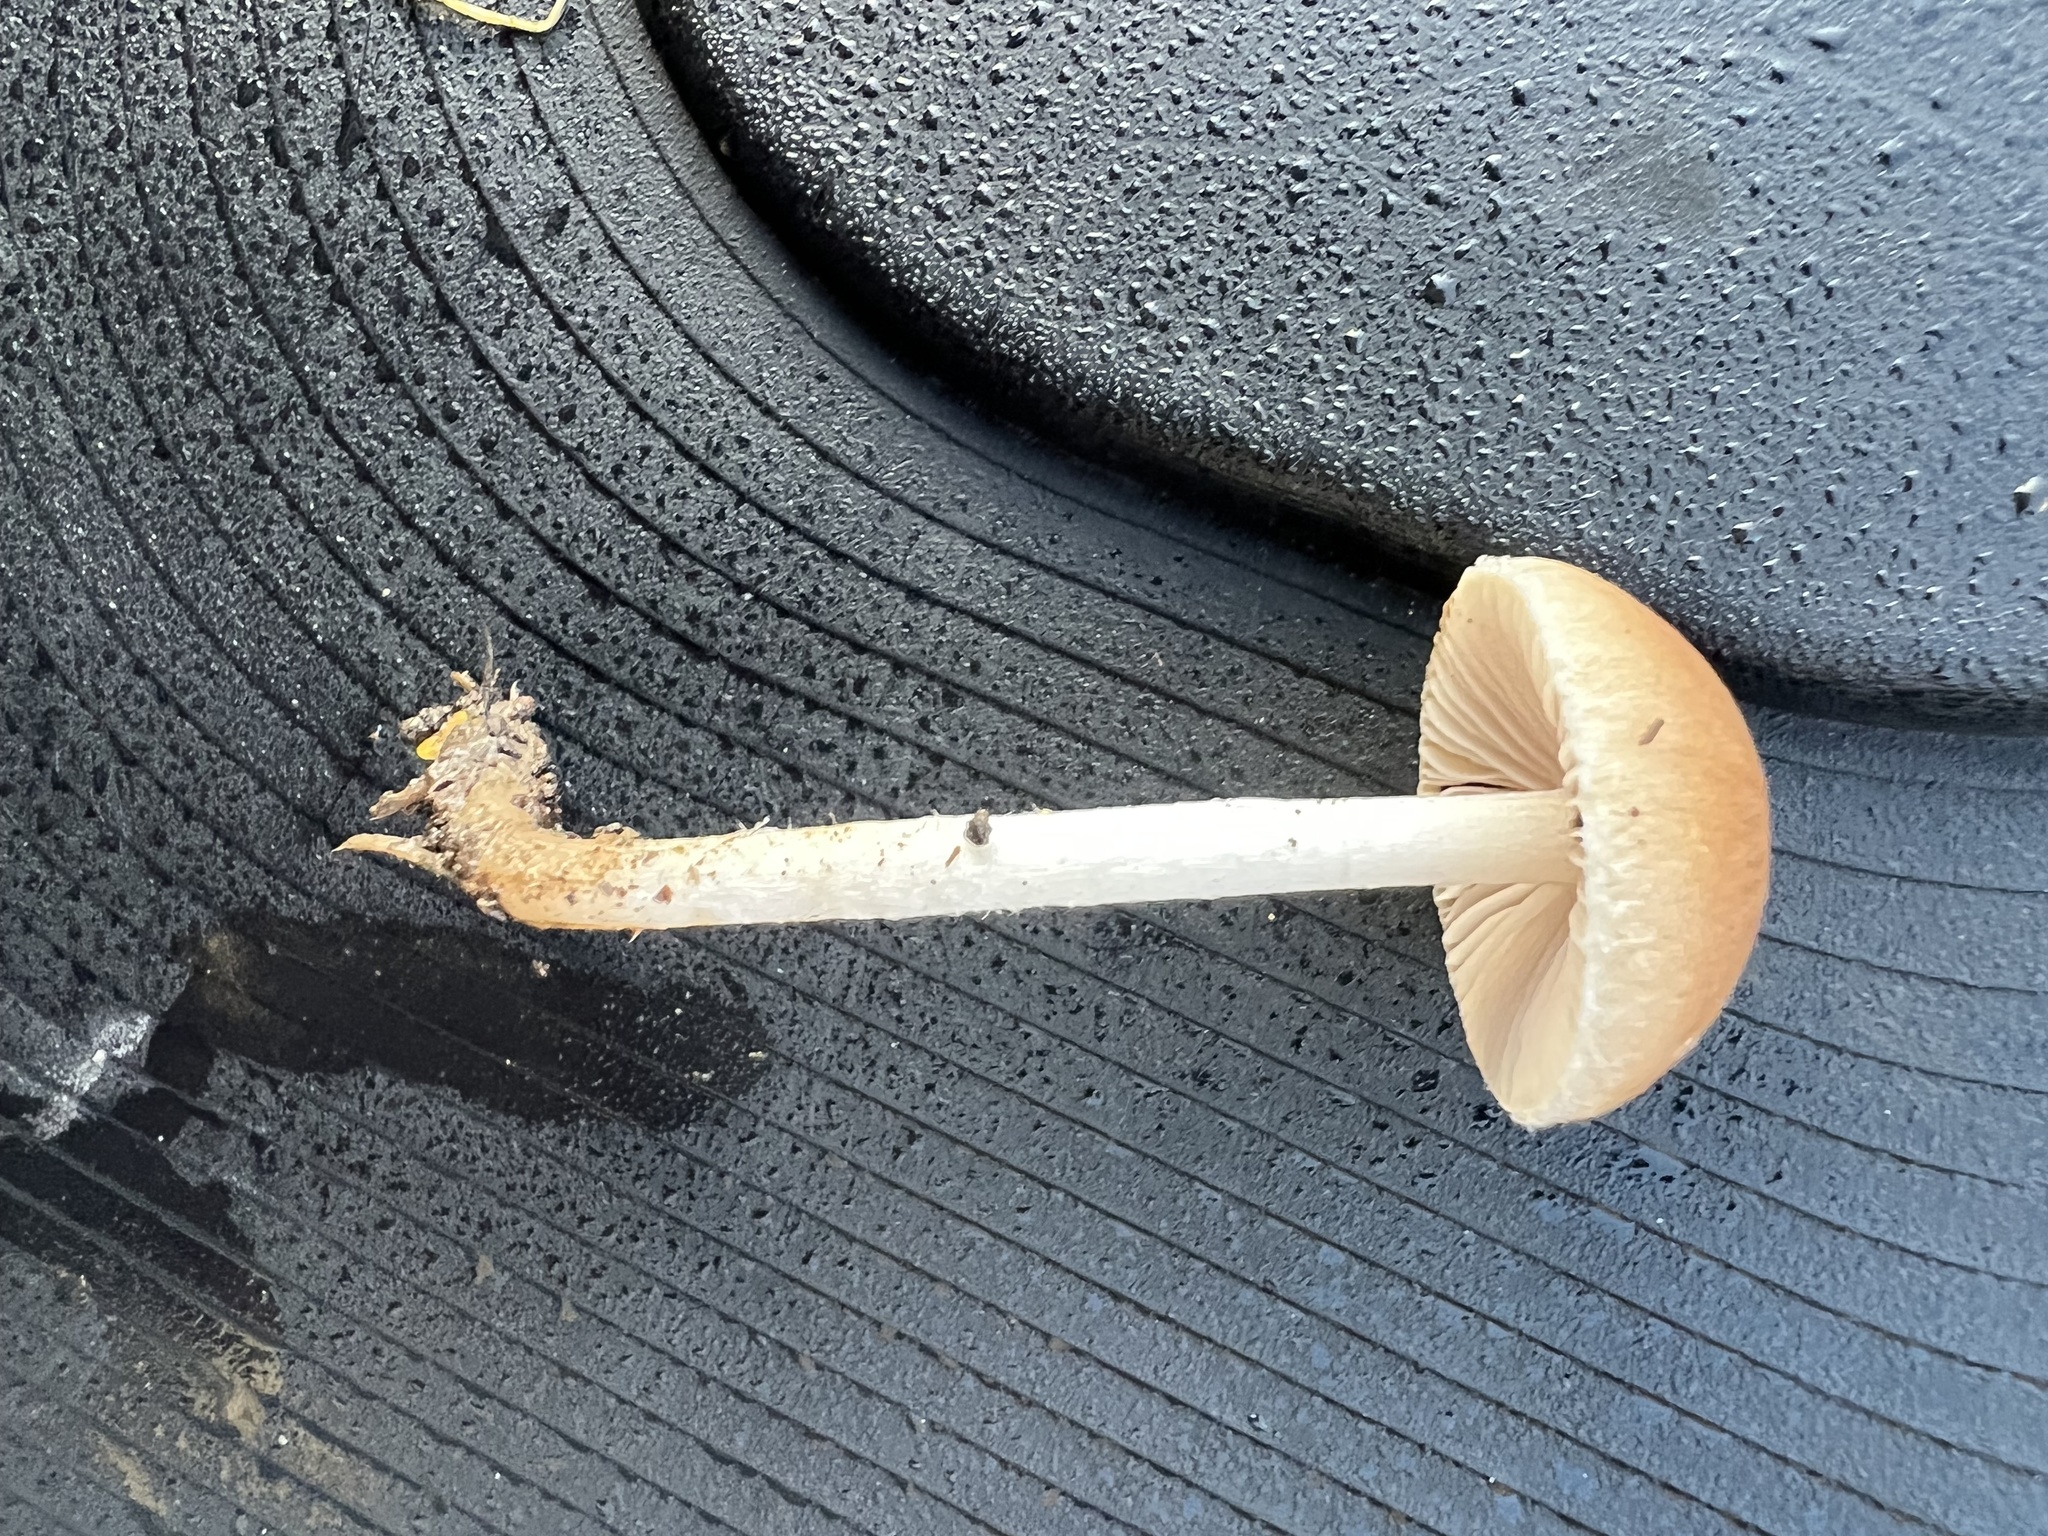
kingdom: Fungi
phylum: Basidiomycota
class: Agaricomycetes
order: Agaricales
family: Psathyrellaceae
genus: Psathyrella
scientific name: Psathyrella fatua
